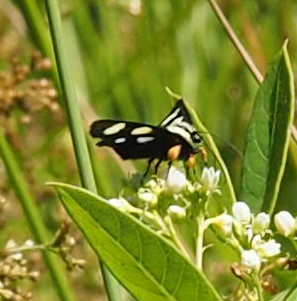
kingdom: Animalia
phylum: Arthropoda
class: Insecta
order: Lepidoptera
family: Noctuidae
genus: Alypia
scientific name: Alypia octomaculata
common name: Eight-spotted forester
